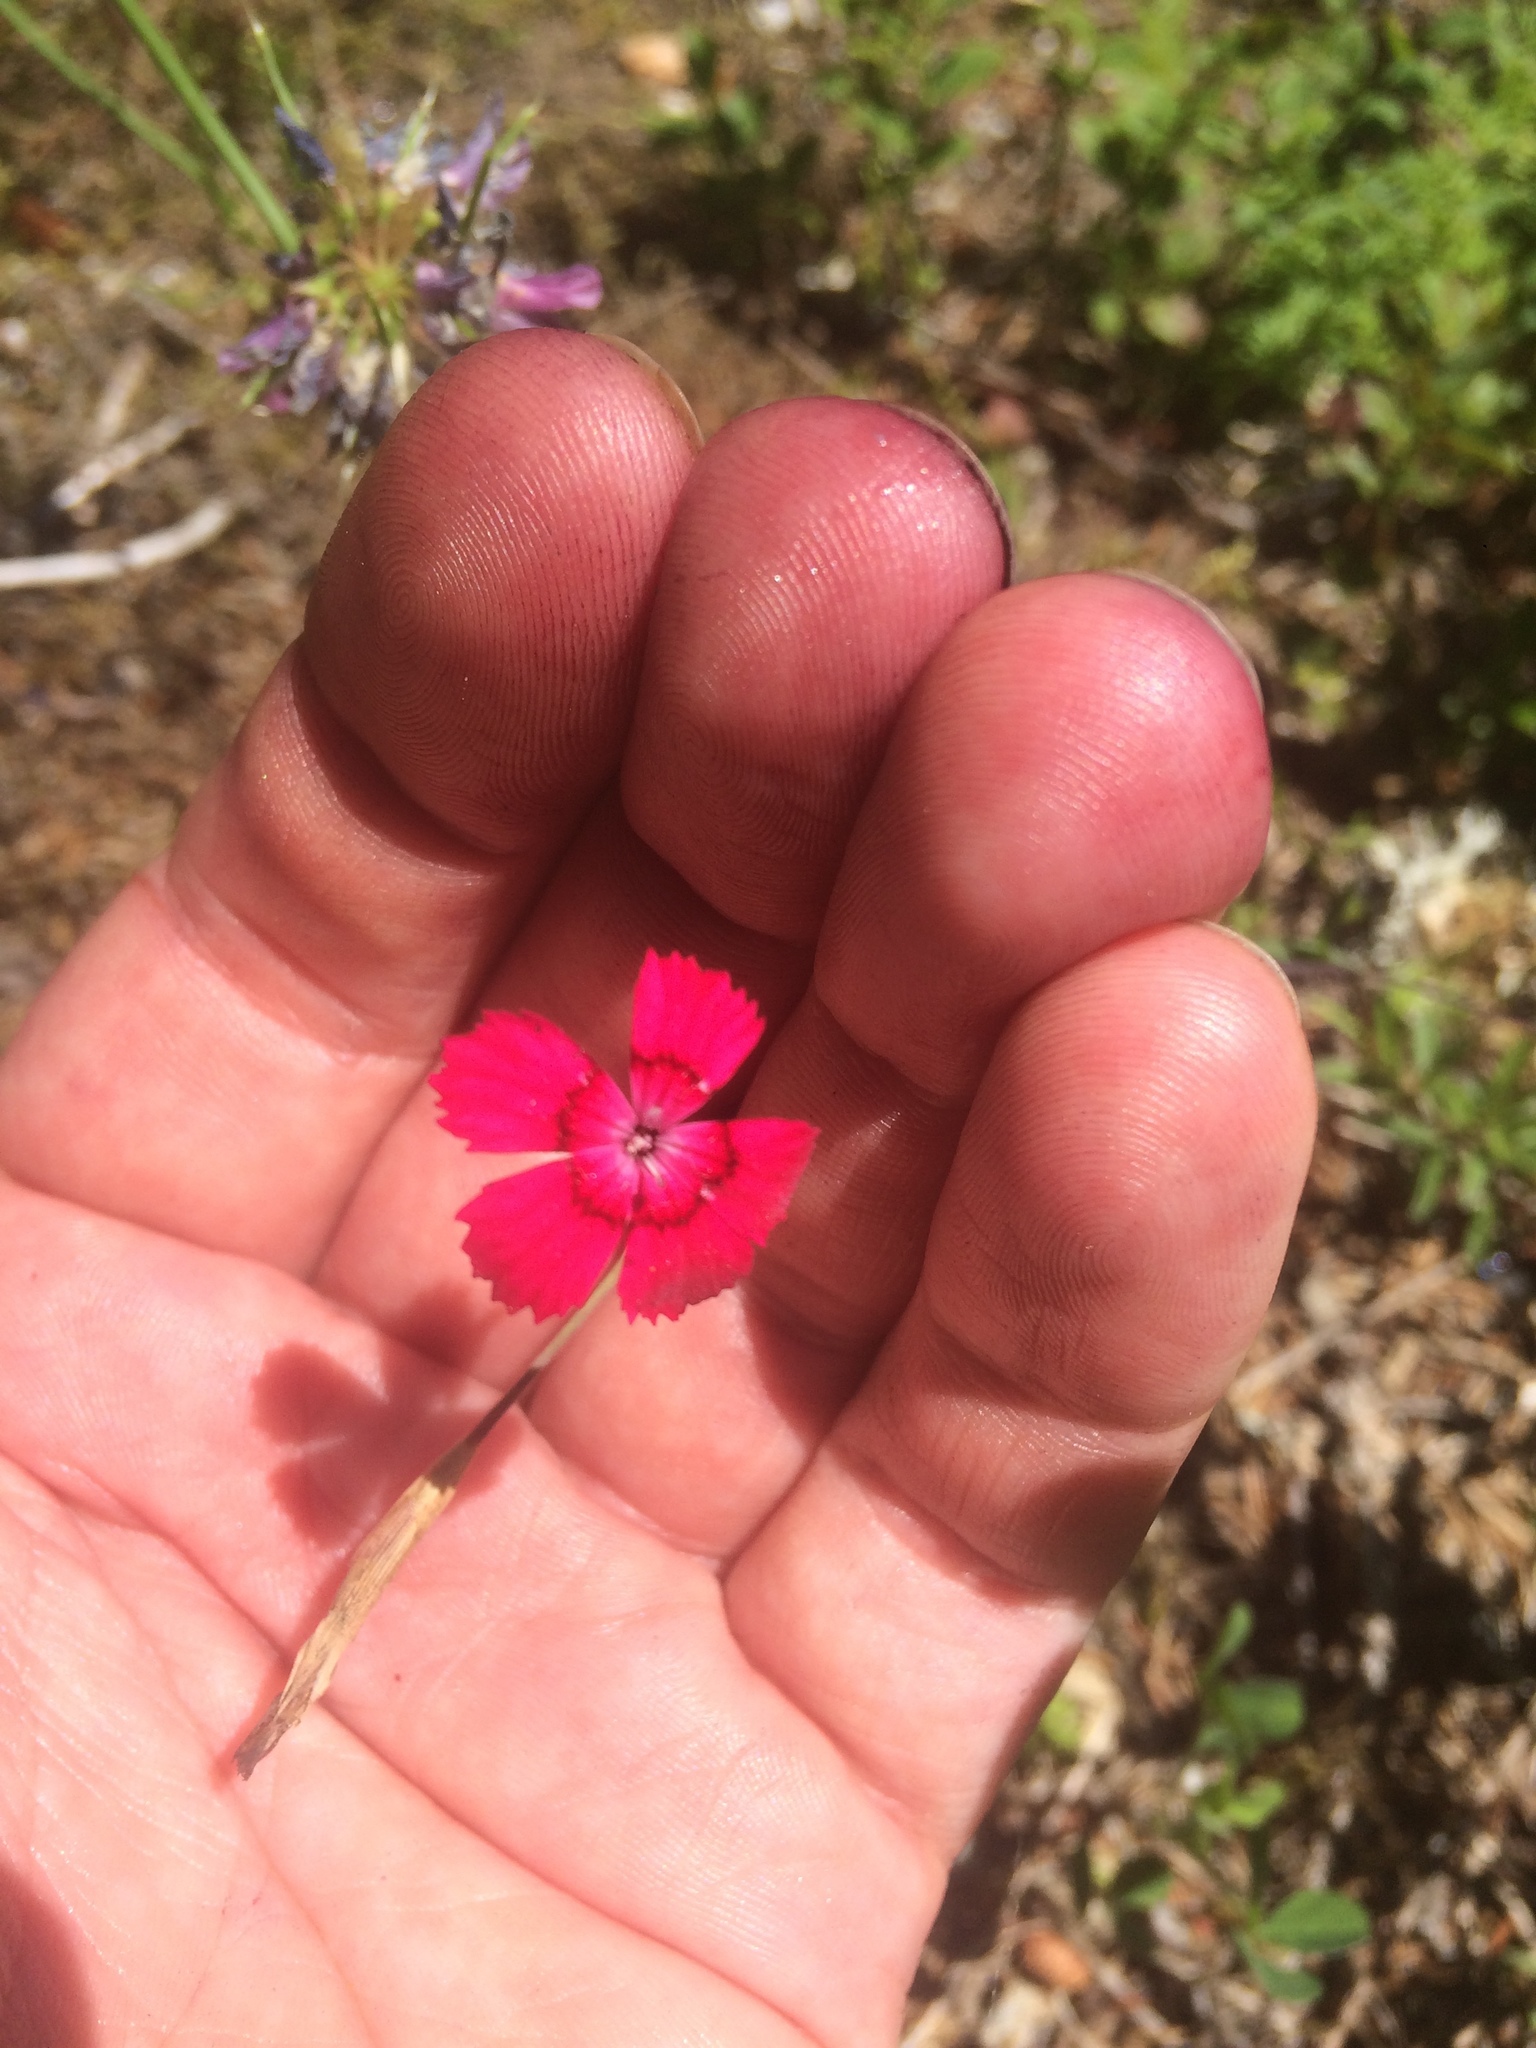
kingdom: Plantae
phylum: Tracheophyta
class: Magnoliopsida
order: Caryophyllales
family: Caryophyllaceae
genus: Dianthus
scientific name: Dianthus deltoides
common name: Maiden pink
